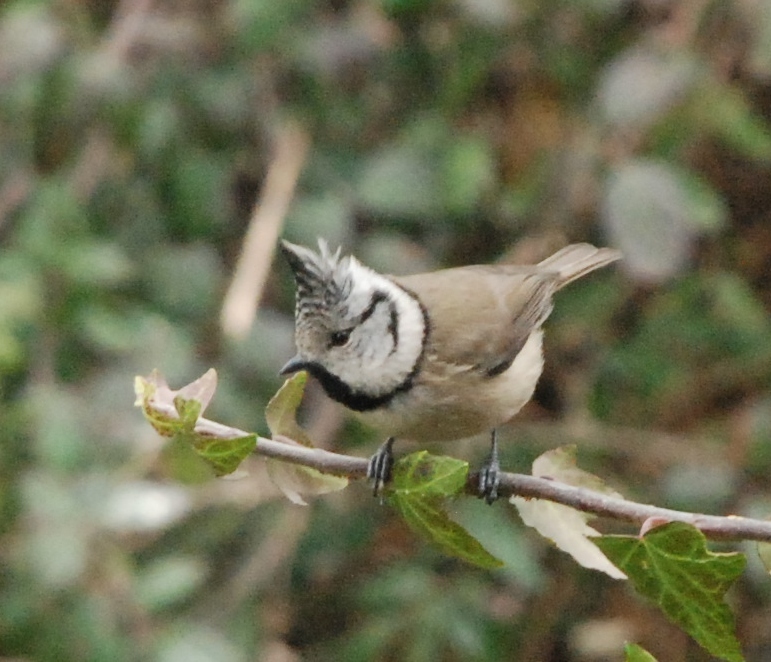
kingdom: Animalia
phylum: Chordata
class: Aves
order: Passeriformes
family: Paridae
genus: Lophophanes
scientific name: Lophophanes cristatus
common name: European crested tit
